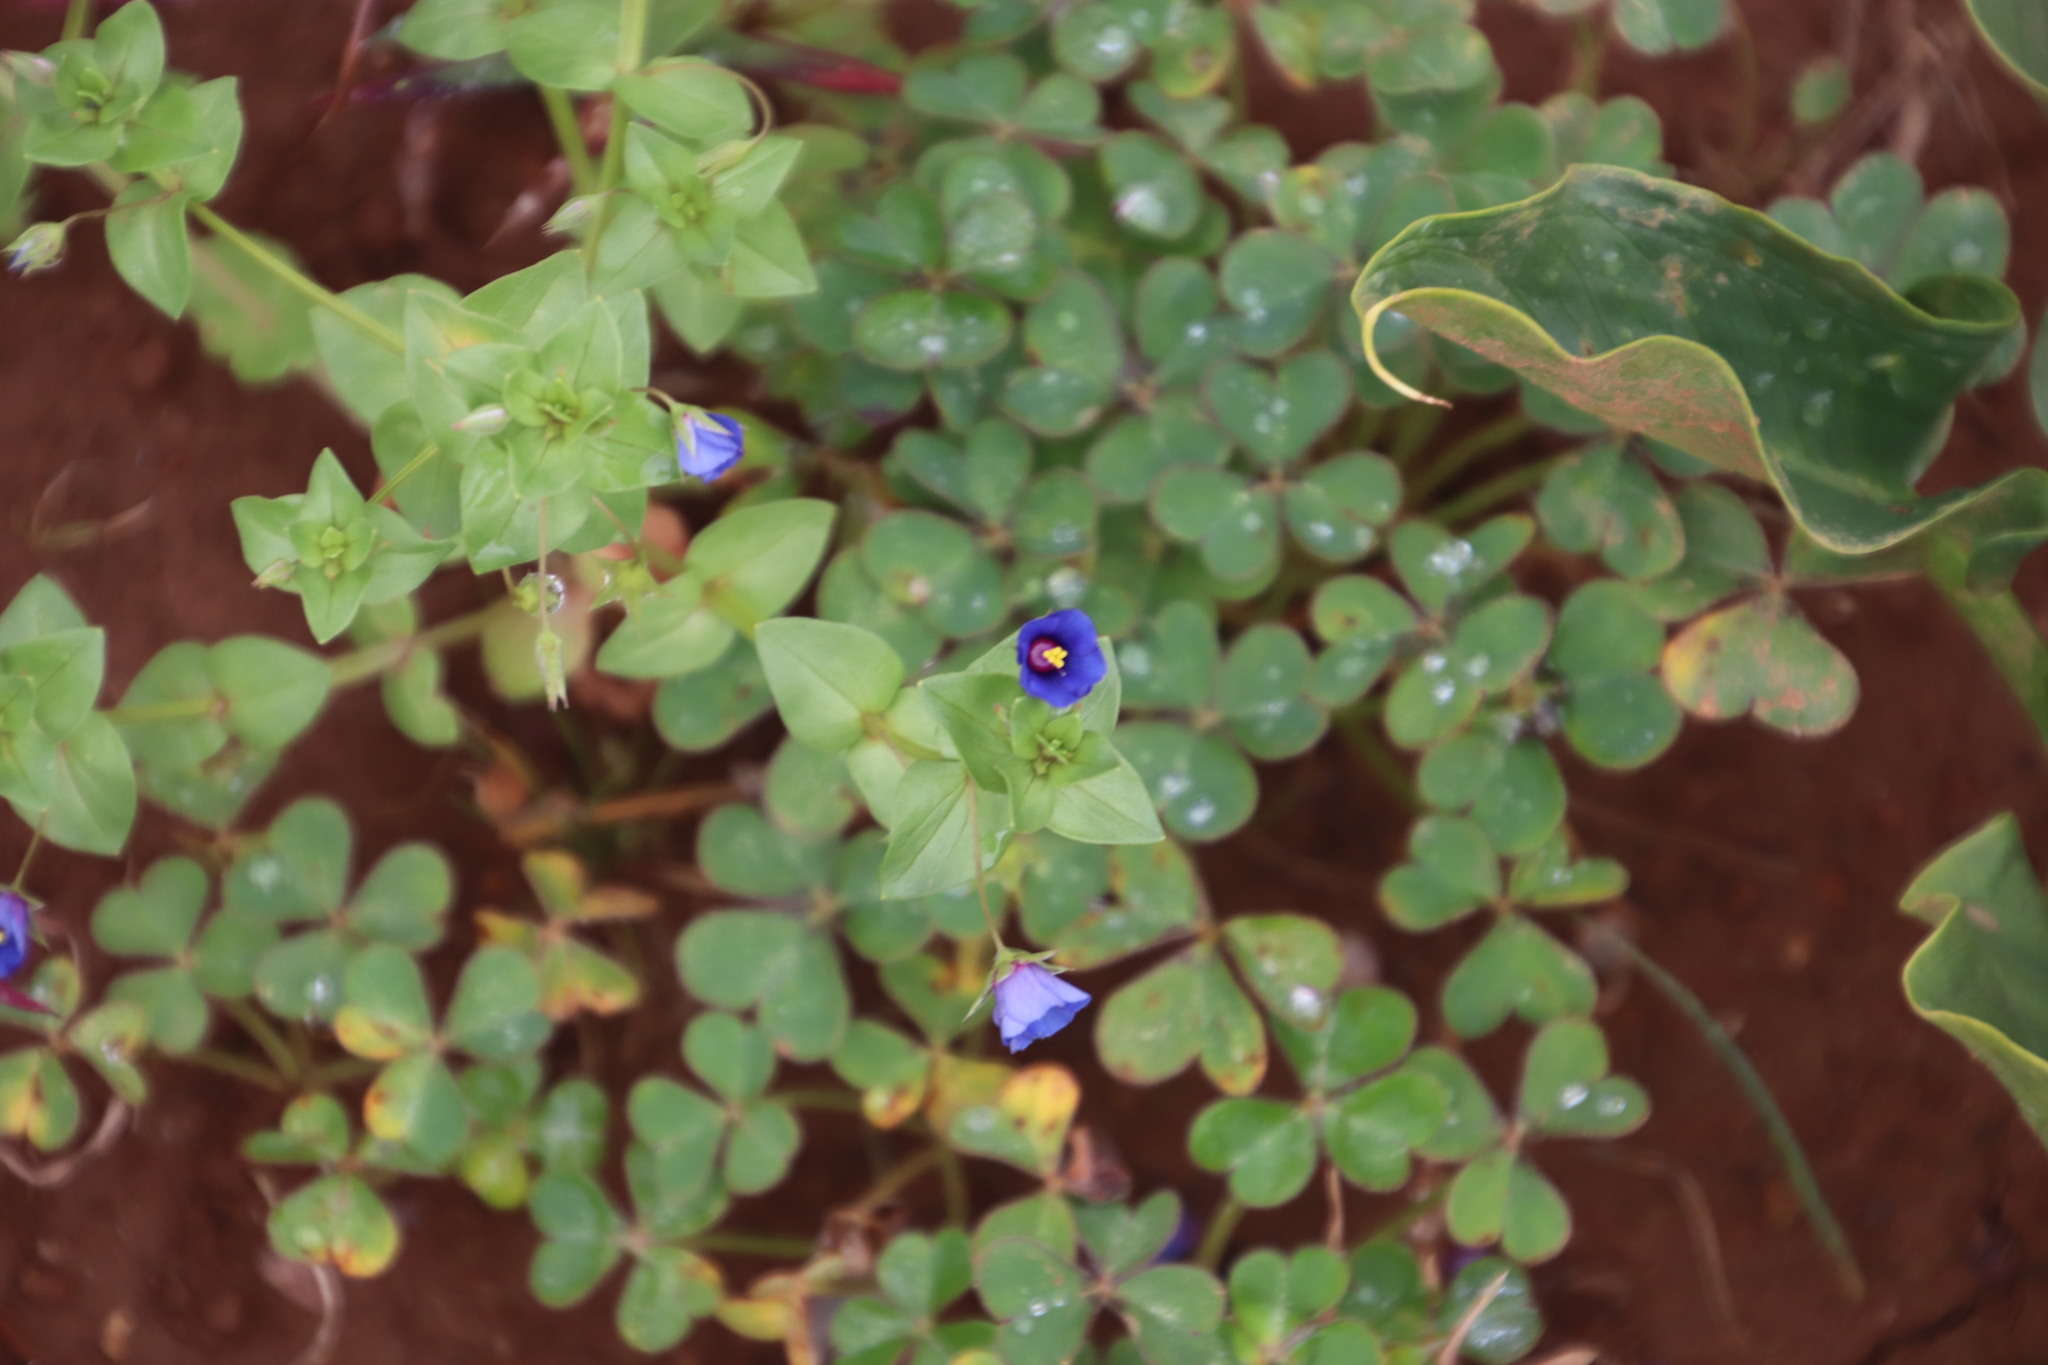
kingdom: Plantae
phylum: Tracheophyta
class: Magnoliopsida
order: Ericales
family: Primulaceae
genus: Lysimachia
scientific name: Lysimachia loeflingii
